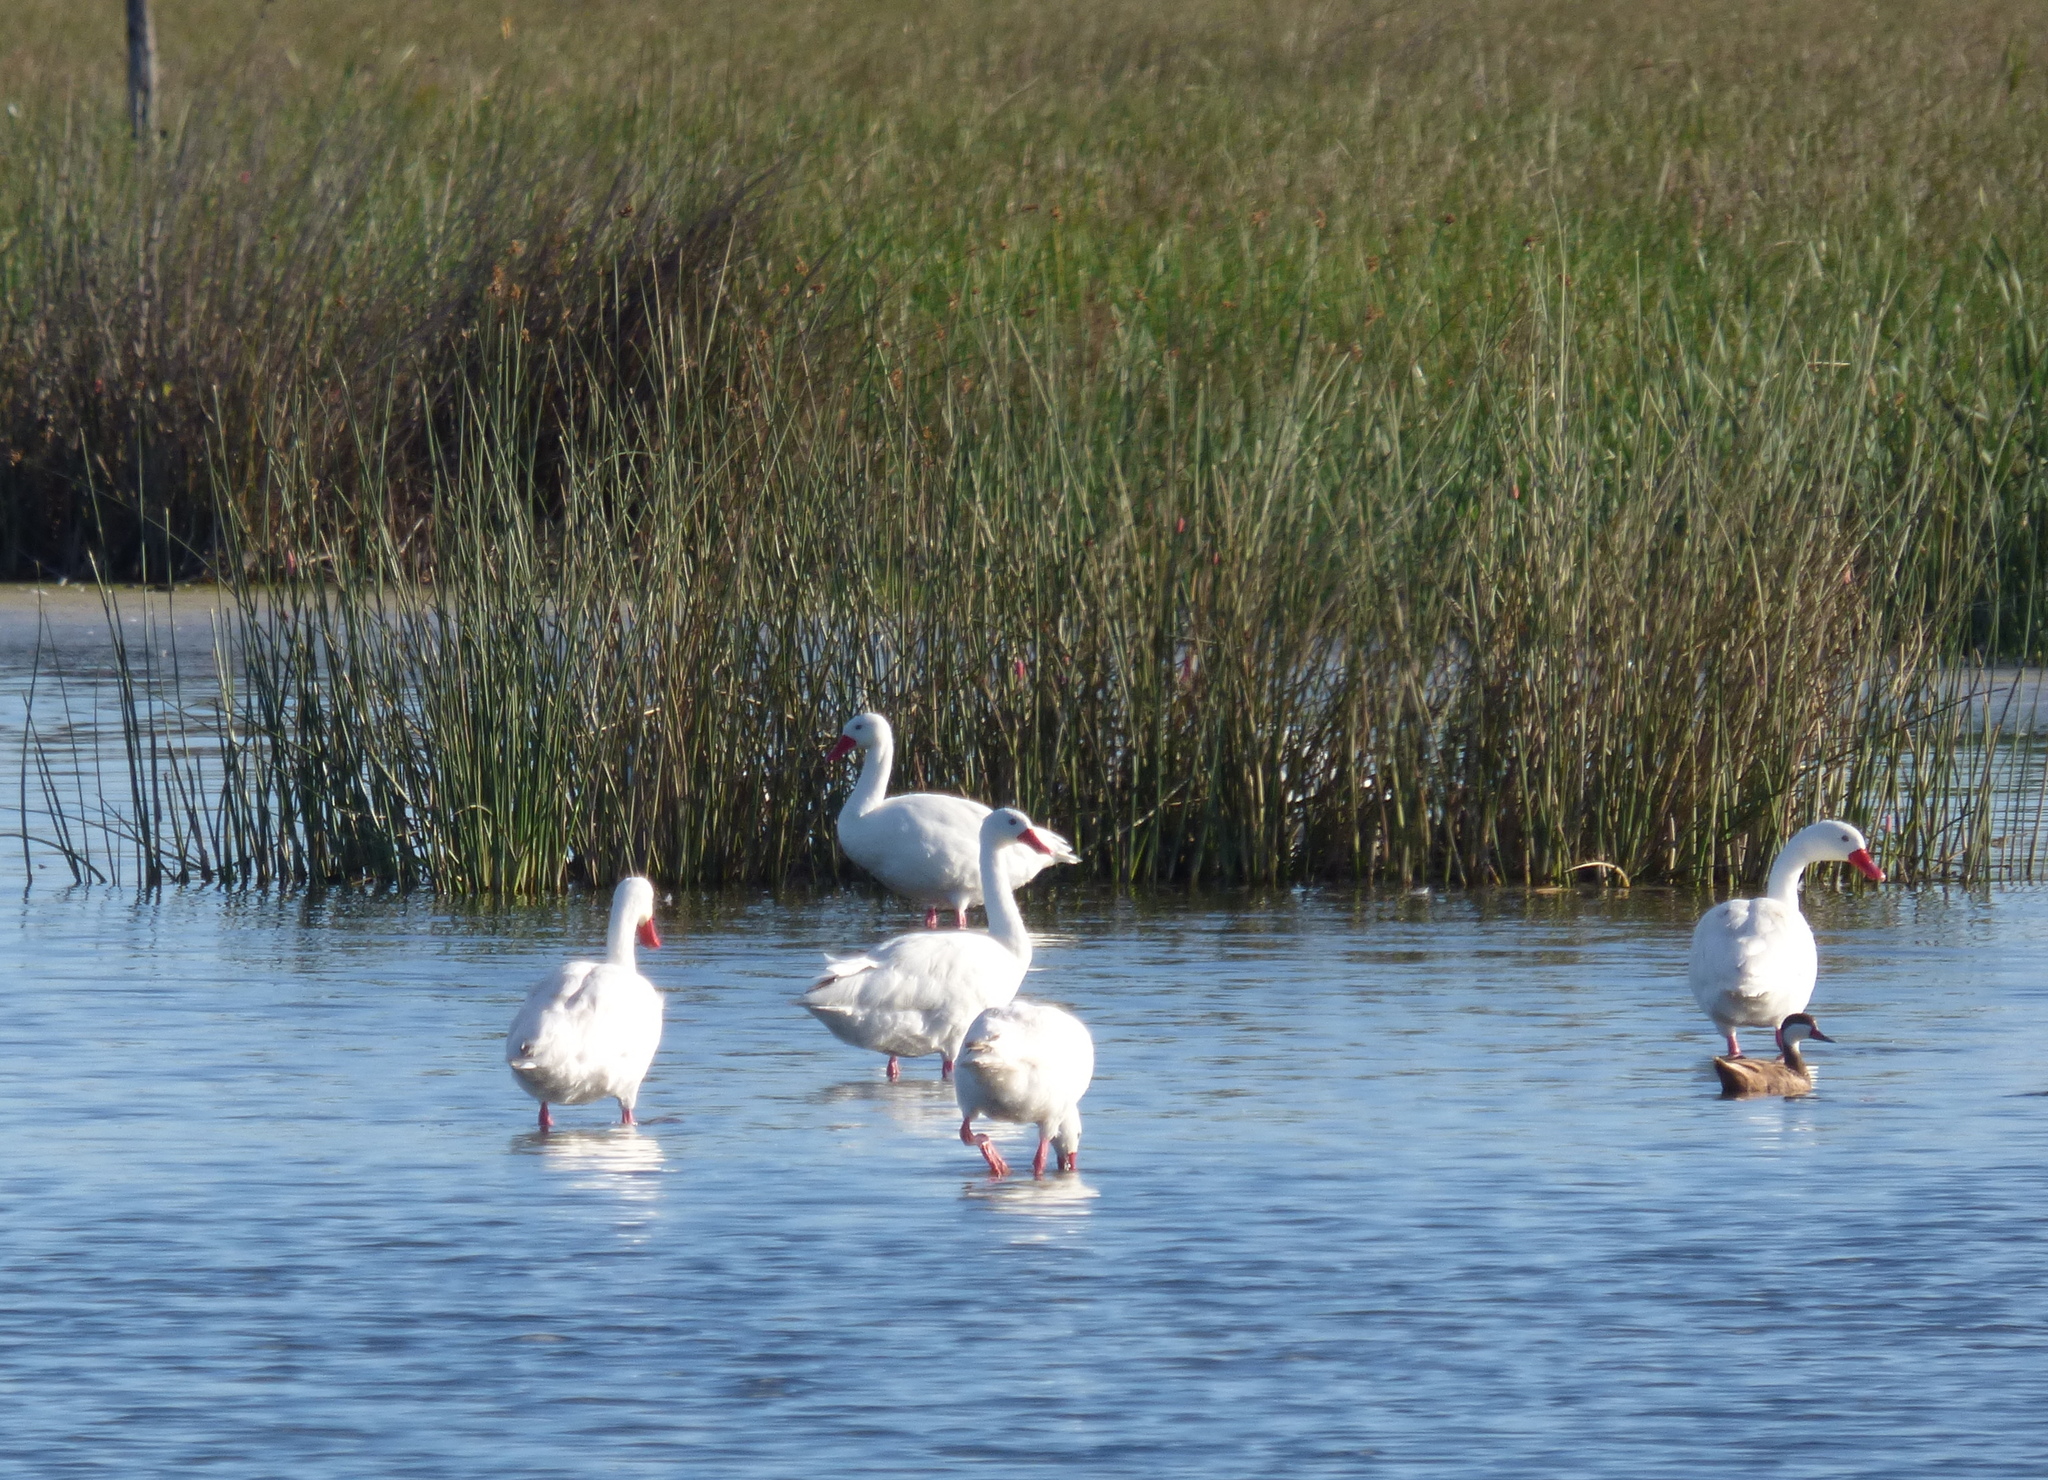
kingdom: Animalia
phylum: Chordata
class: Aves
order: Anseriformes
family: Anatidae
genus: Coscoroba
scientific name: Coscoroba coscoroba
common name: Coscoroba swan
